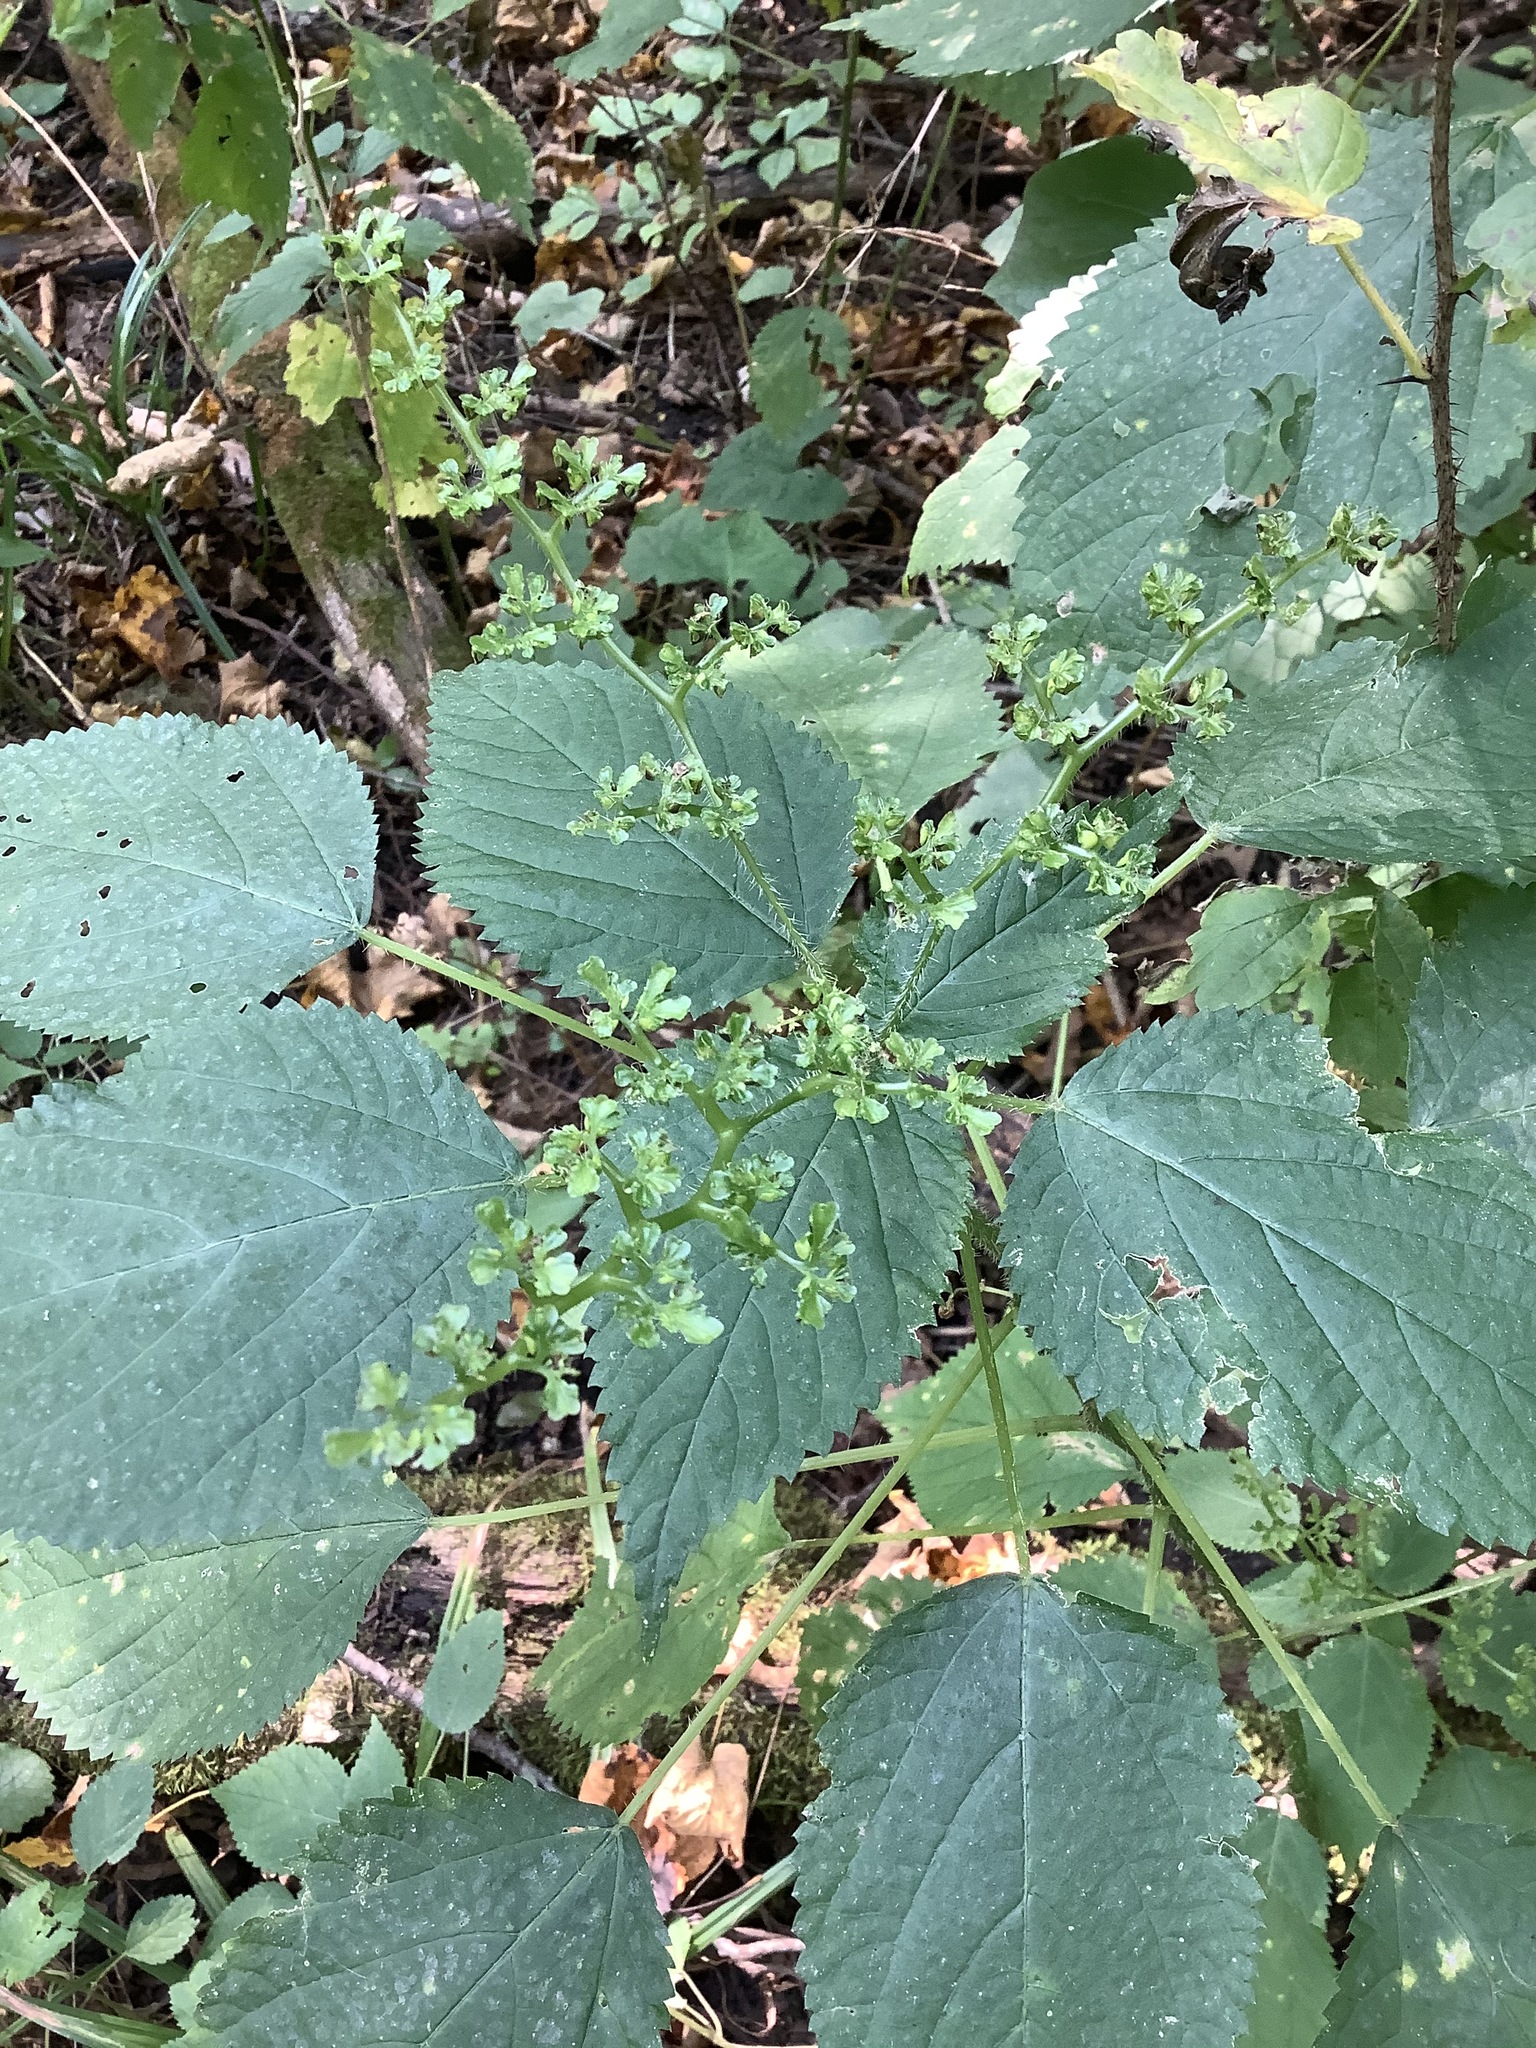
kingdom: Plantae
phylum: Tracheophyta
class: Magnoliopsida
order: Rosales
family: Urticaceae
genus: Laportea
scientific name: Laportea canadensis
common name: Canada nettle
